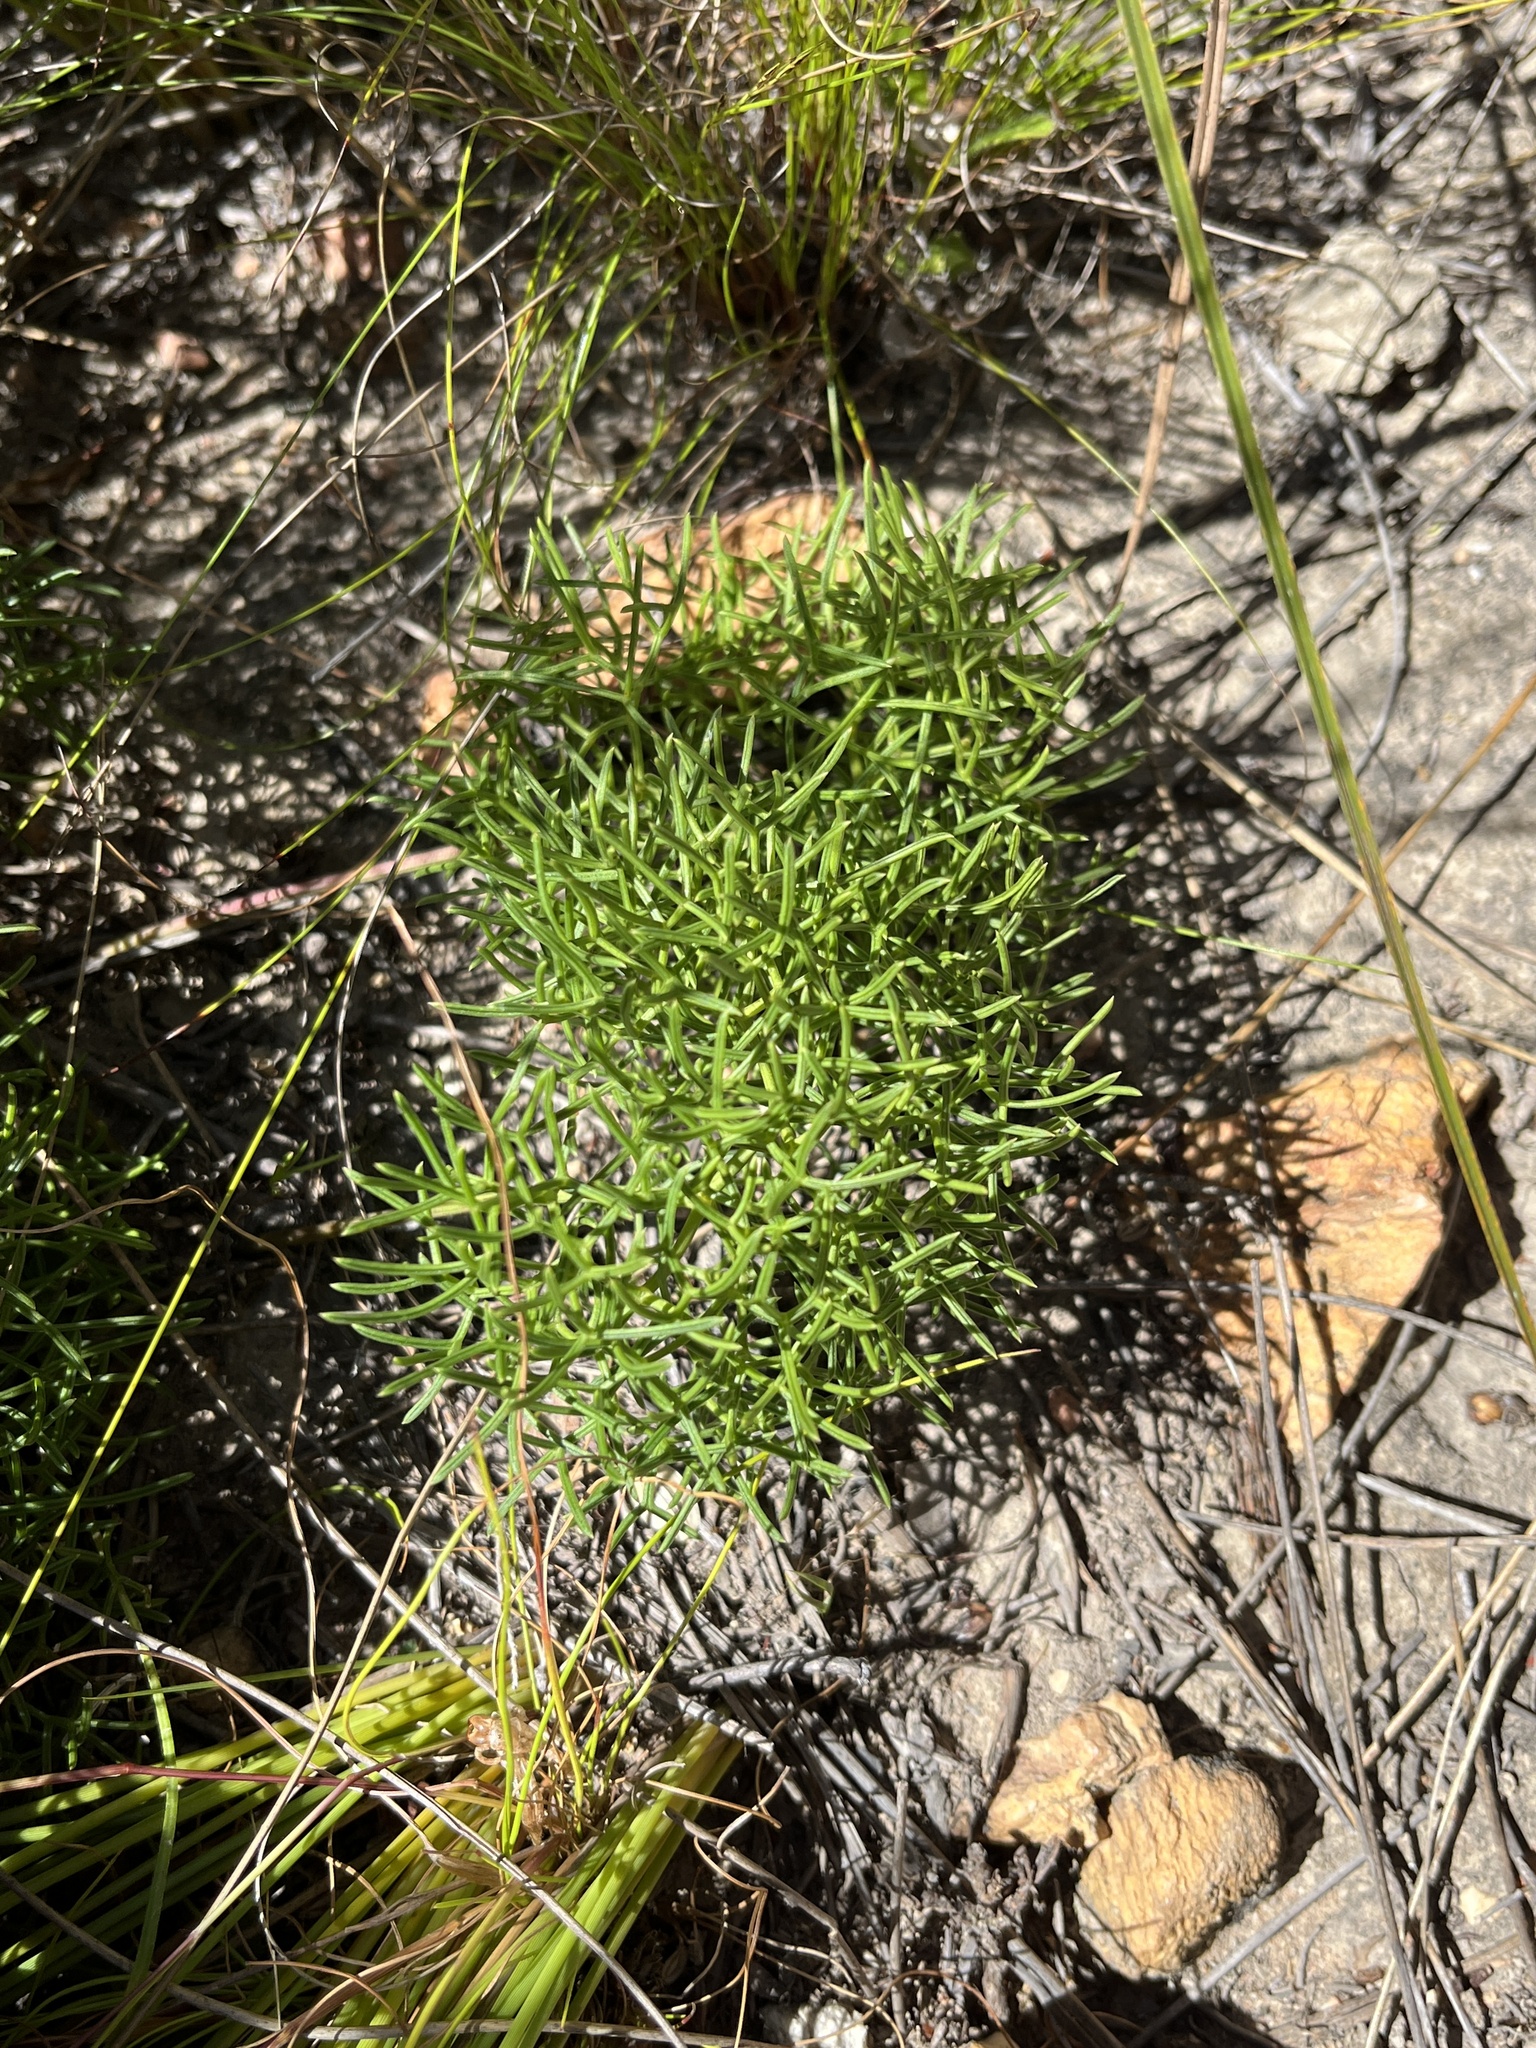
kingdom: Plantae
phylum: Tracheophyta
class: Magnoliopsida
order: Apiales
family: Apiaceae
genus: Nanobubon
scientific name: Nanobubon capillaceum
